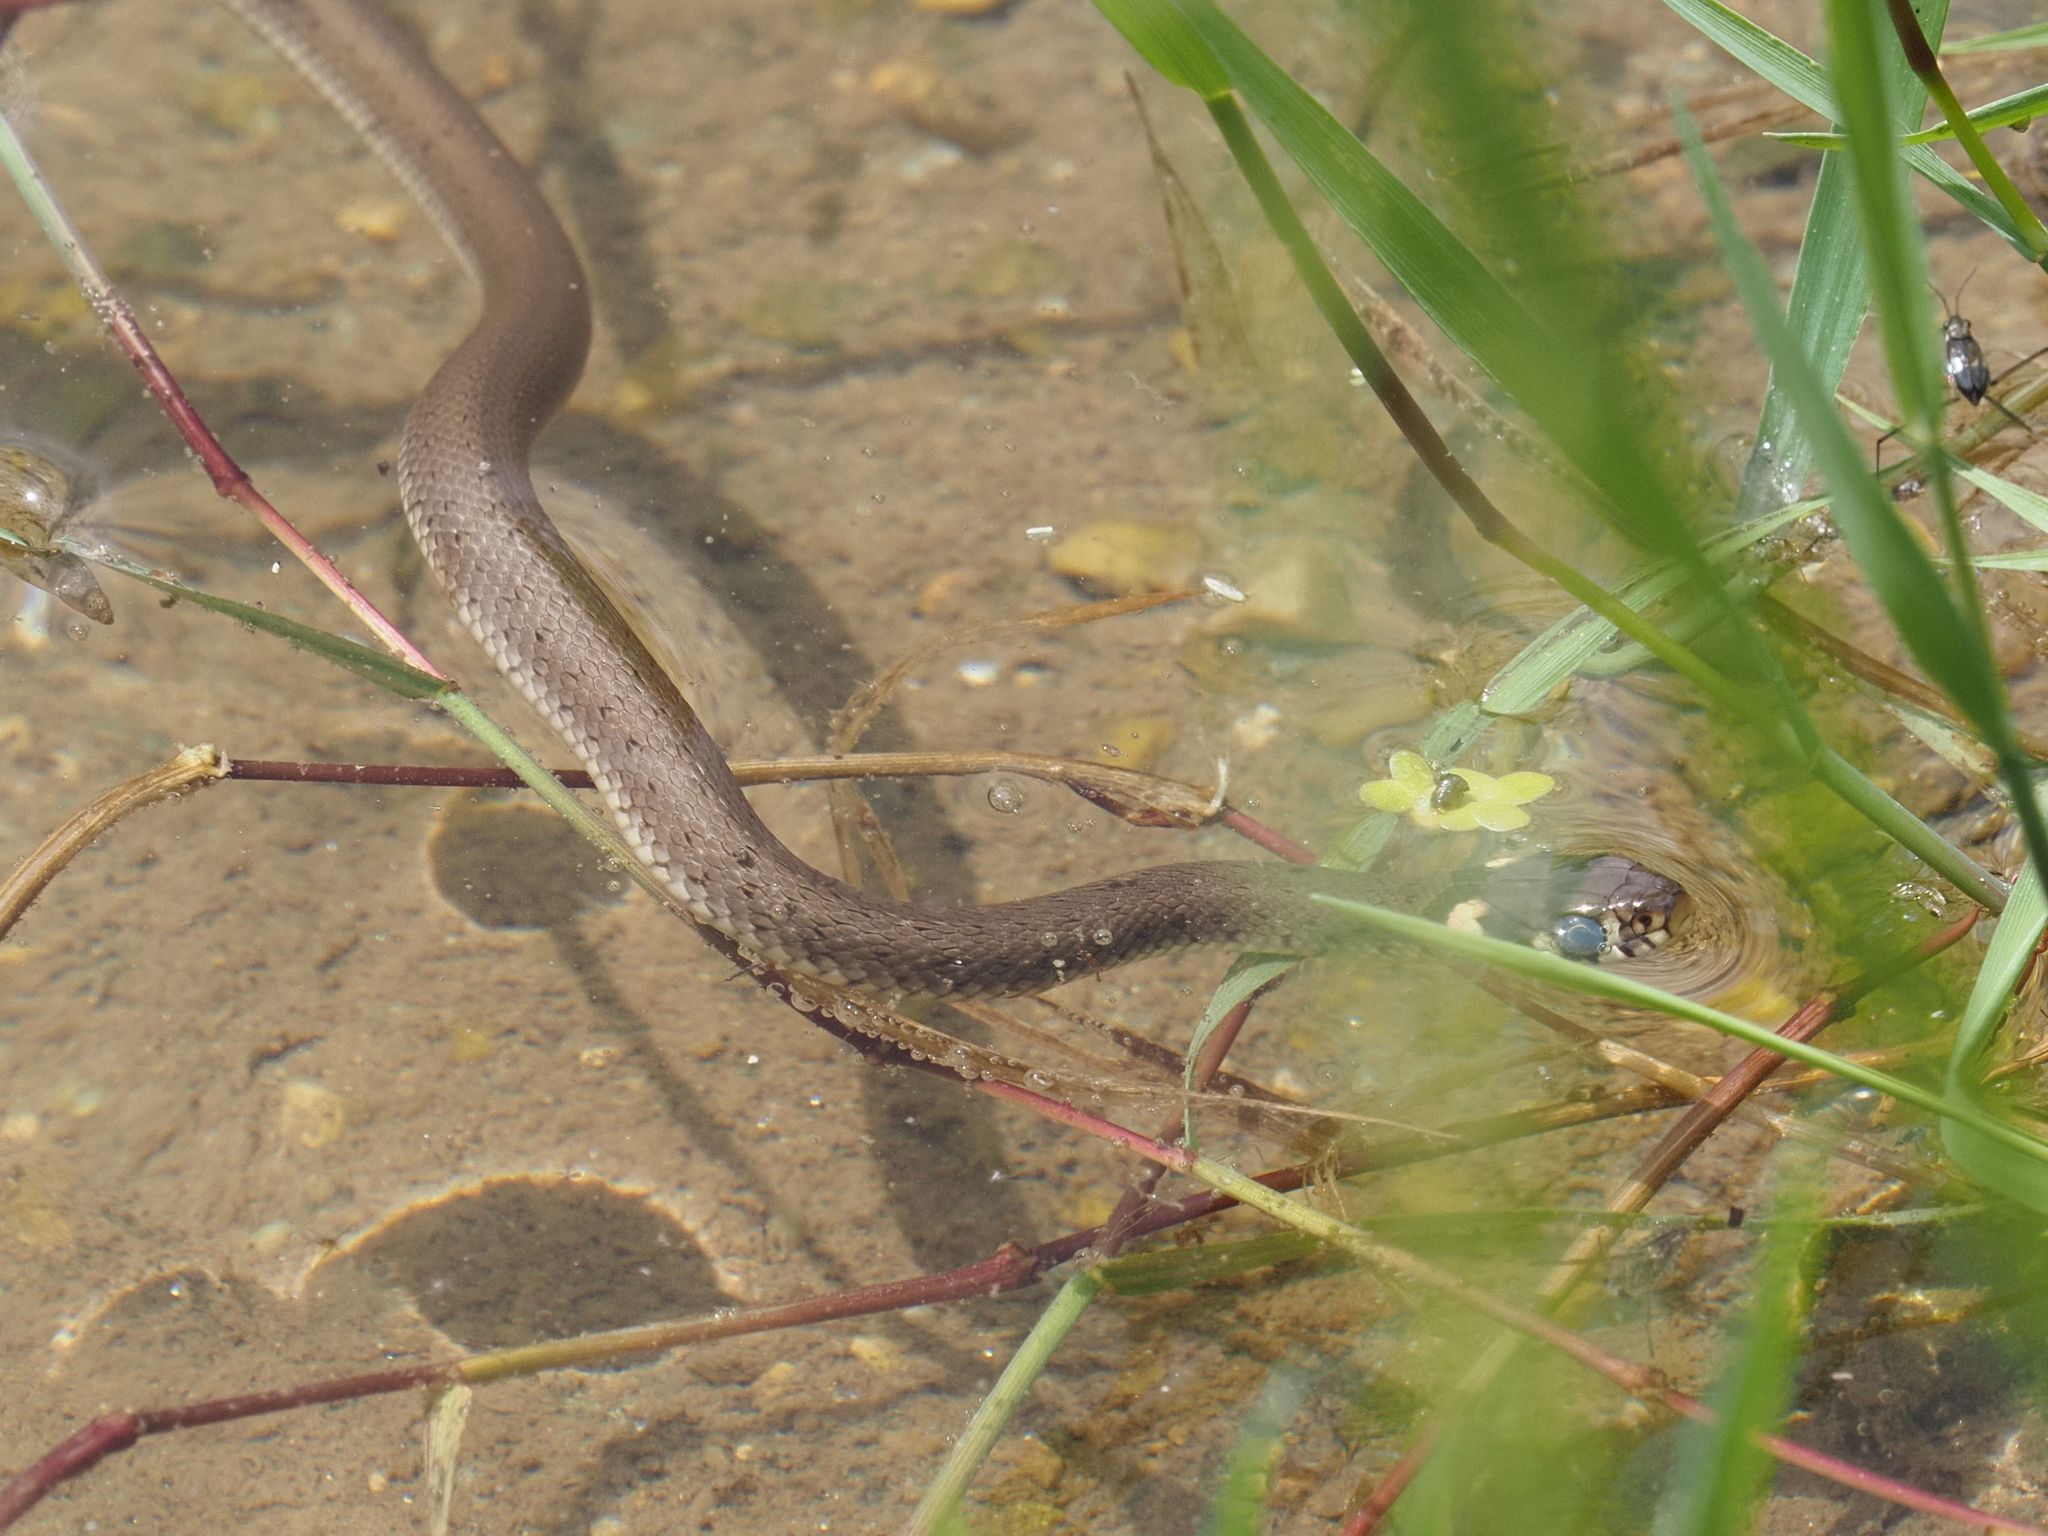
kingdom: Animalia
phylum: Chordata
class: Squamata
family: Colubridae
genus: Natrix
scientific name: Natrix natrix
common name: Grass snake
